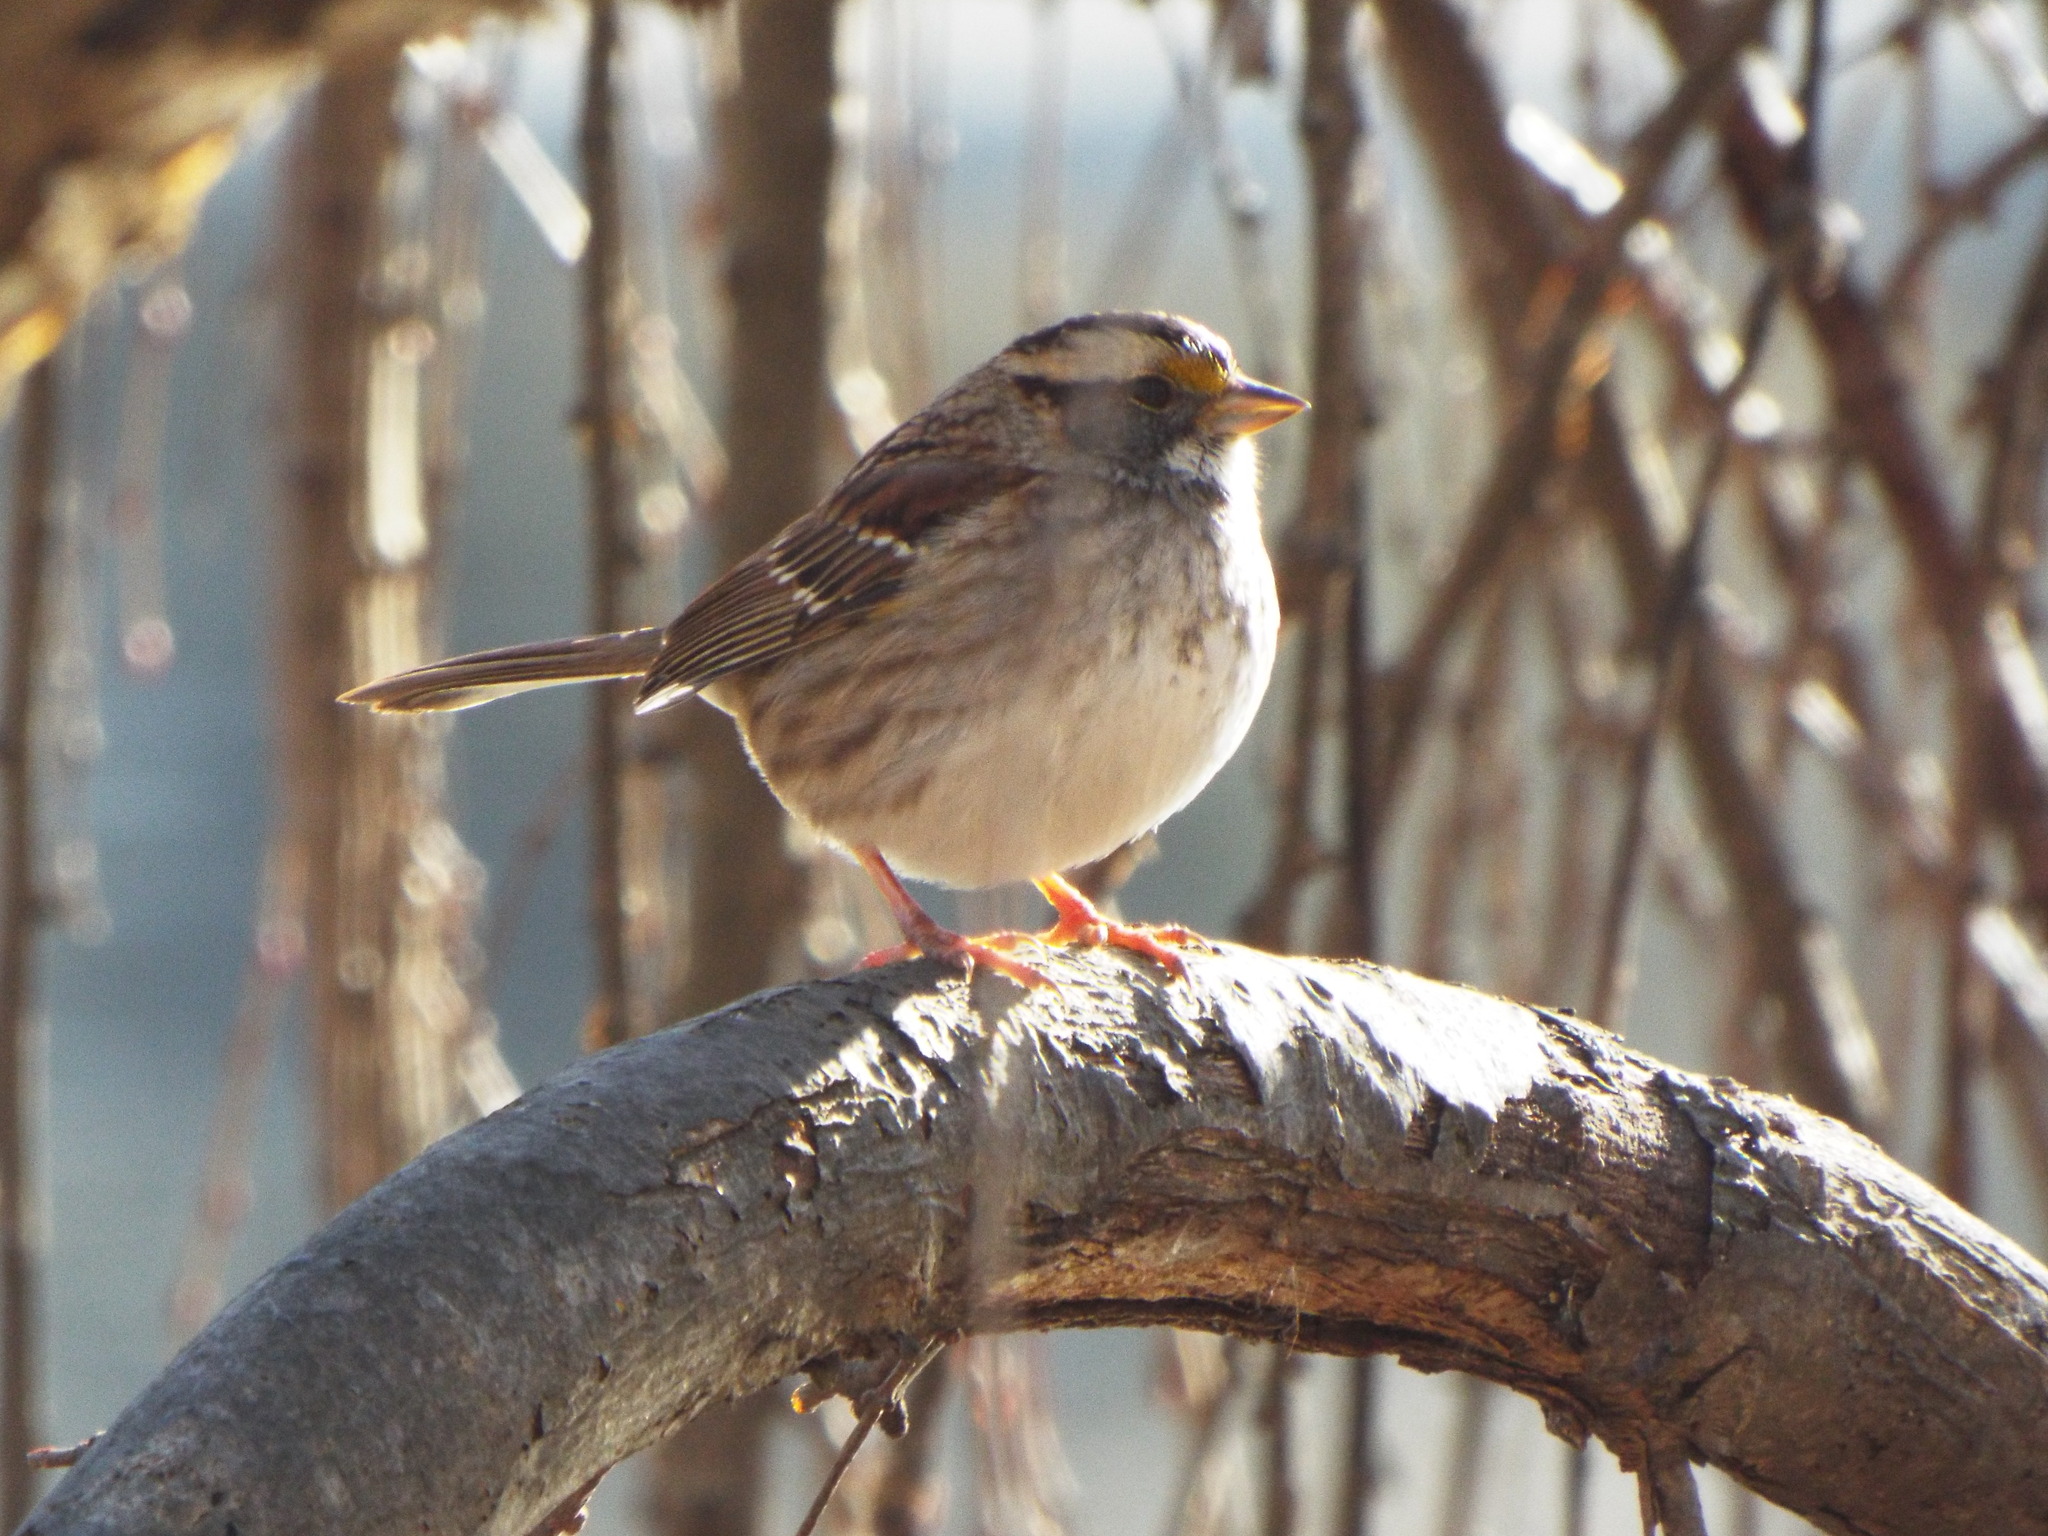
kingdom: Animalia
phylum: Chordata
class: Aves
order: Passeriformes
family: Passerellidae
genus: Zonotrichia
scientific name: Zonotrichia albicollis
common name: White-throated sparrow
